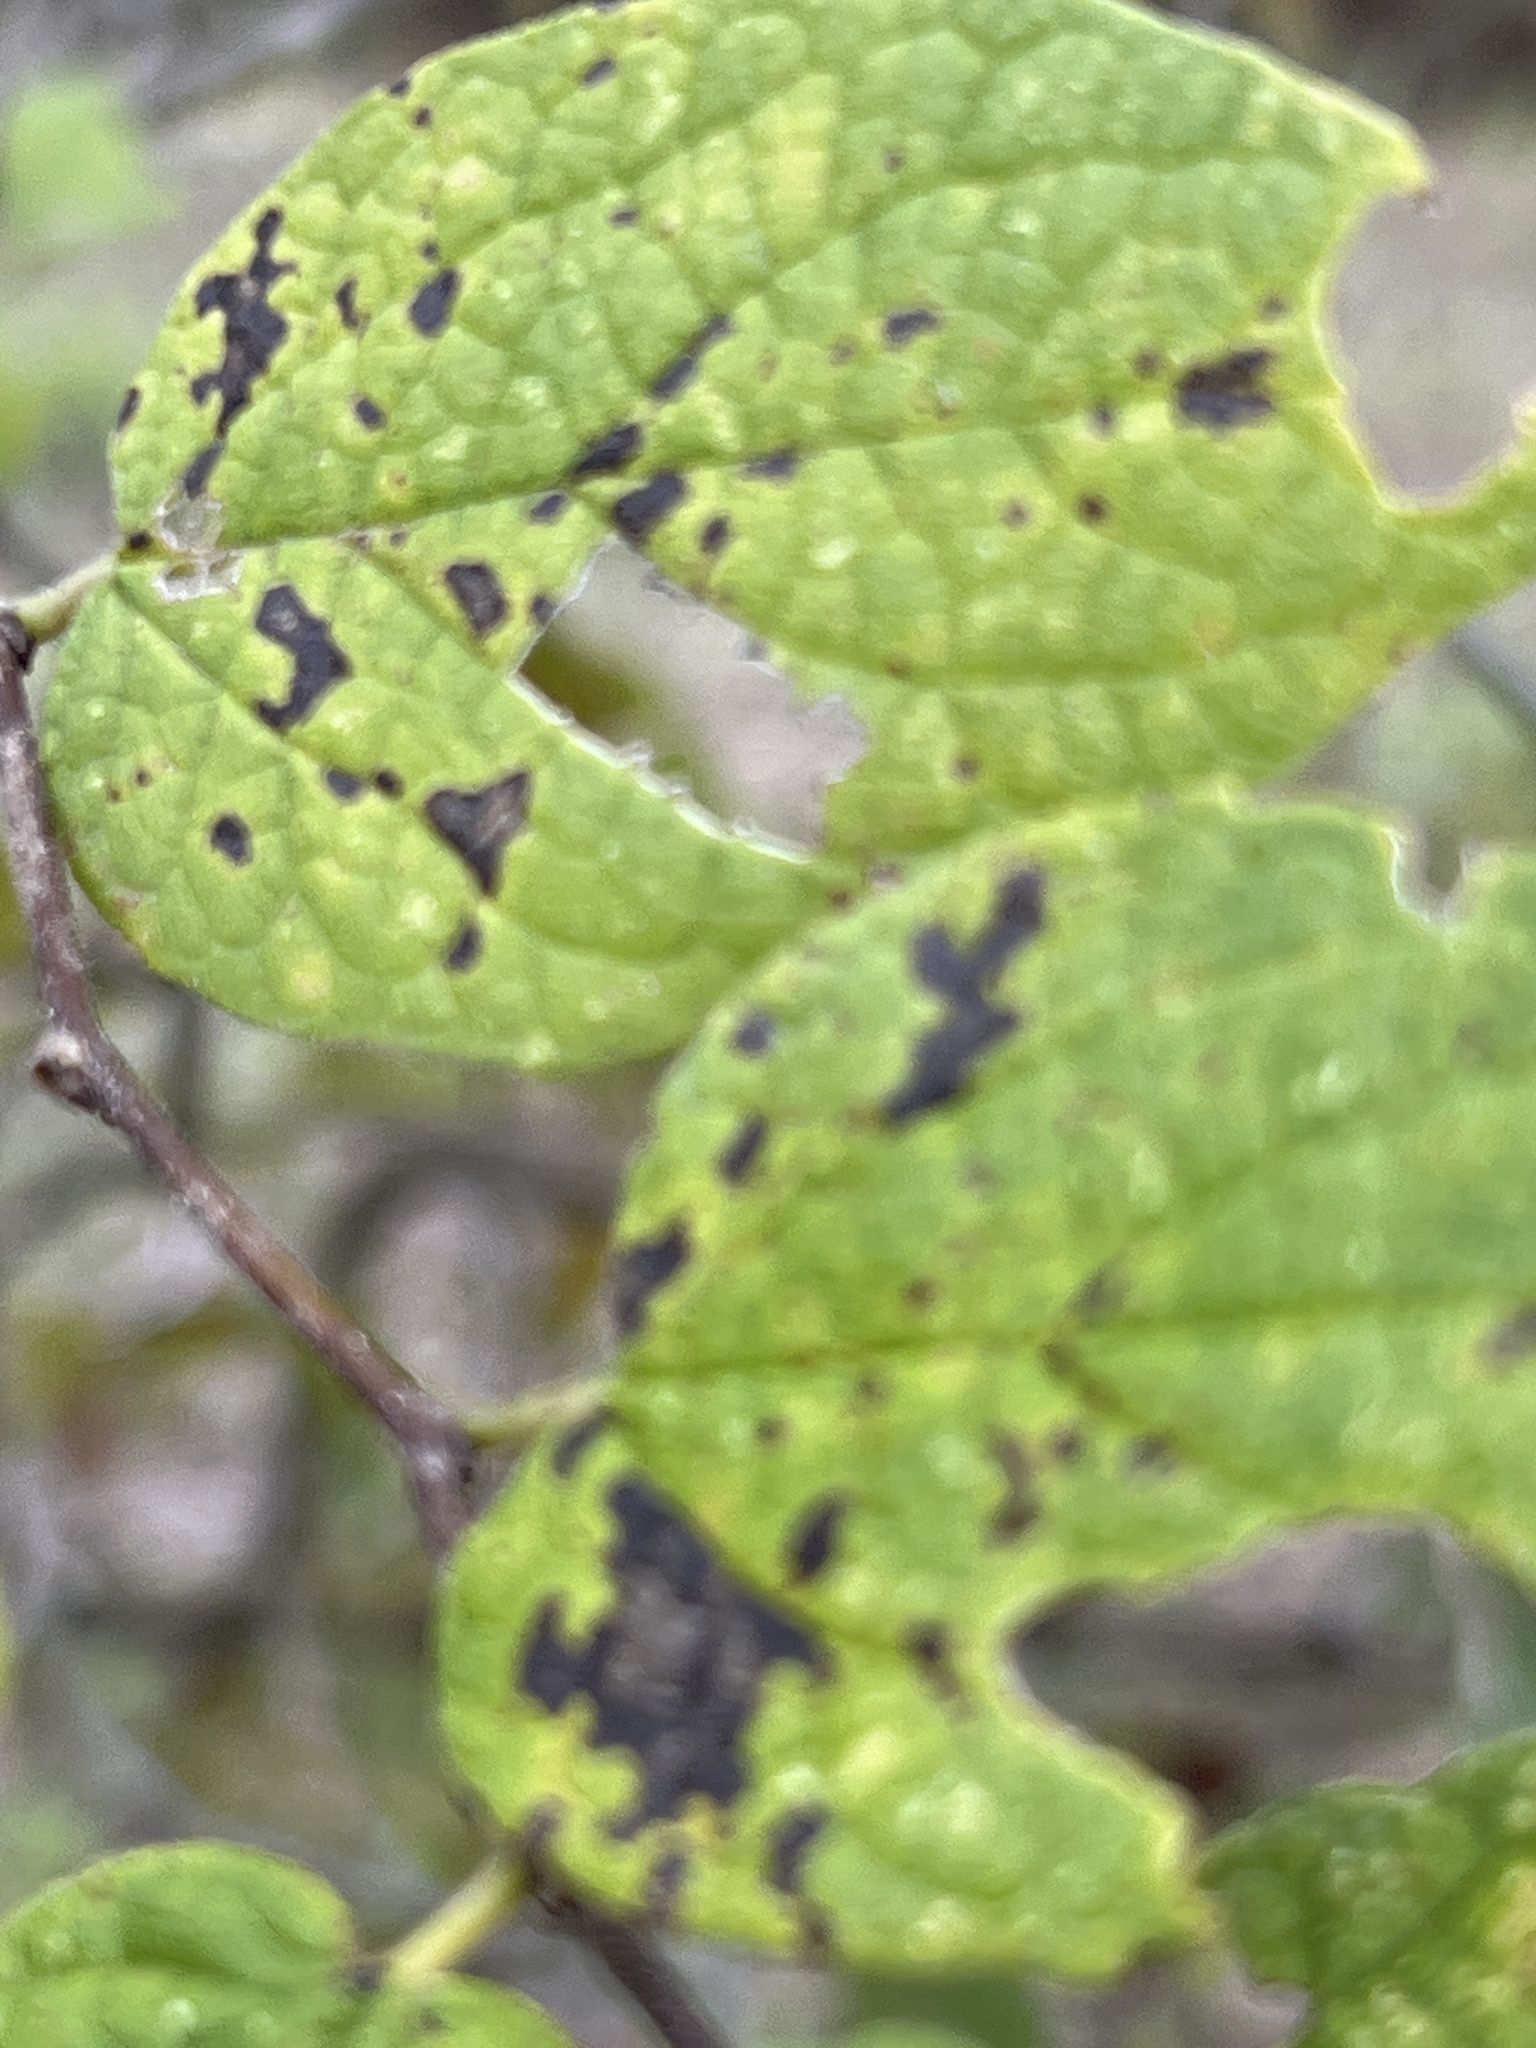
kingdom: Plantae
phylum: Tracheophyta
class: Magnoliopsida
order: Rosales
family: Cannabaceae
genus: Celtis
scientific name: Celtis reticulata
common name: Netleaf hackberry
